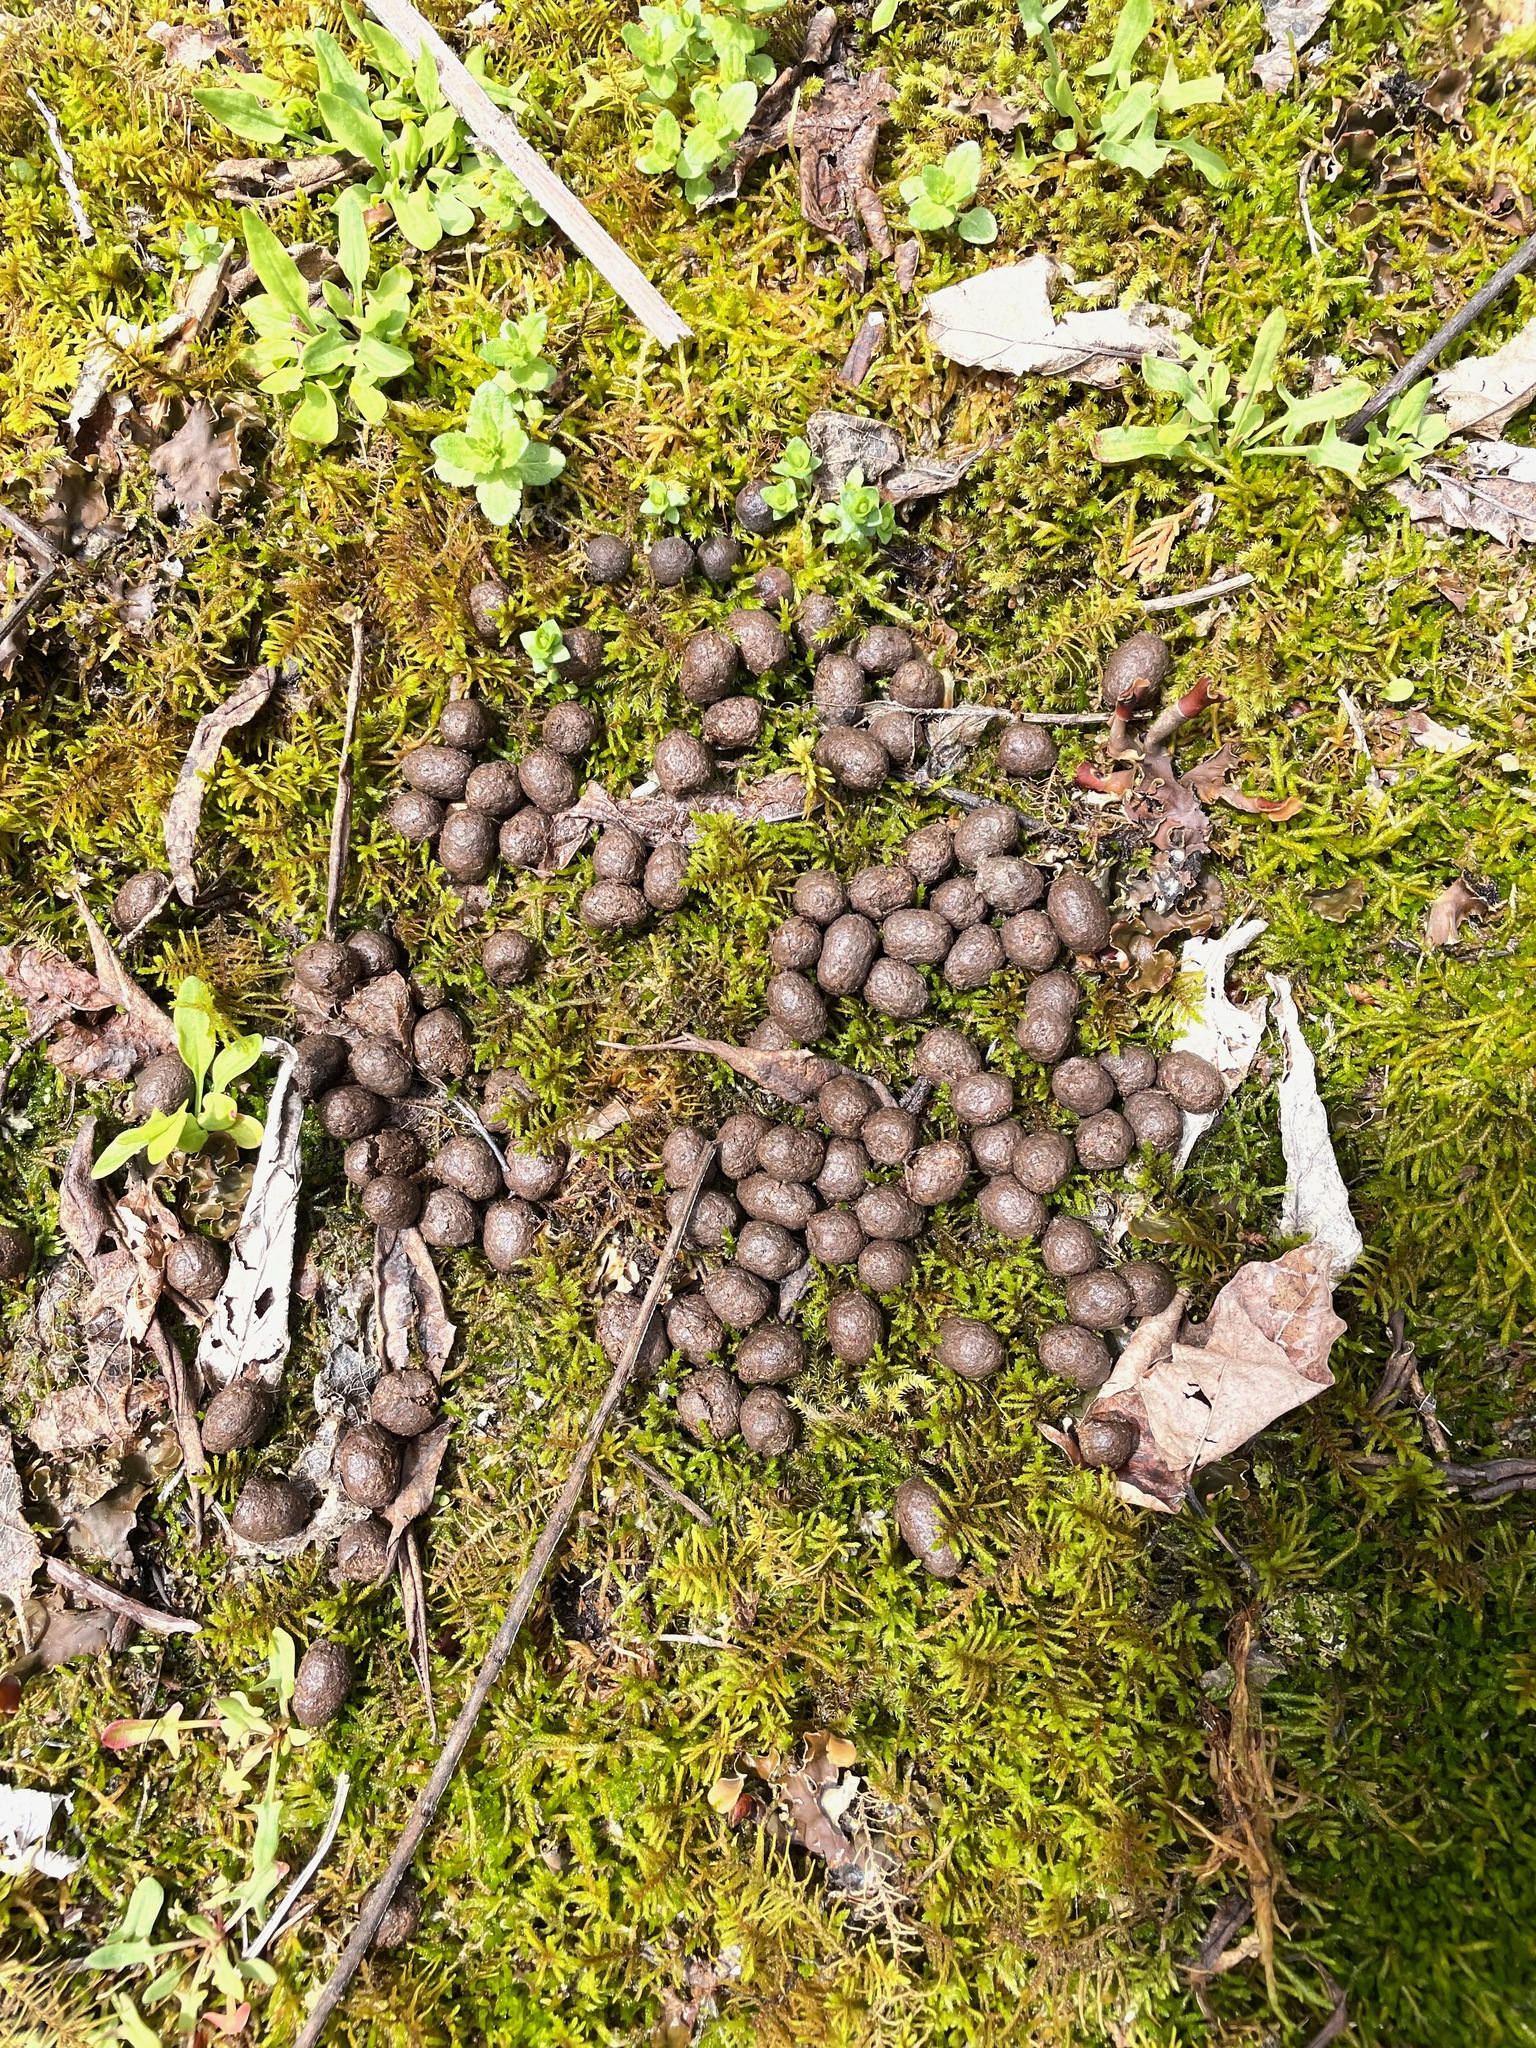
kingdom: Animalia
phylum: Chordata
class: Mammalia
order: Artiodactyla
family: Cervidae
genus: Odocoileus
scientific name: Odocoileus virginianus
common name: White-tailed deer
